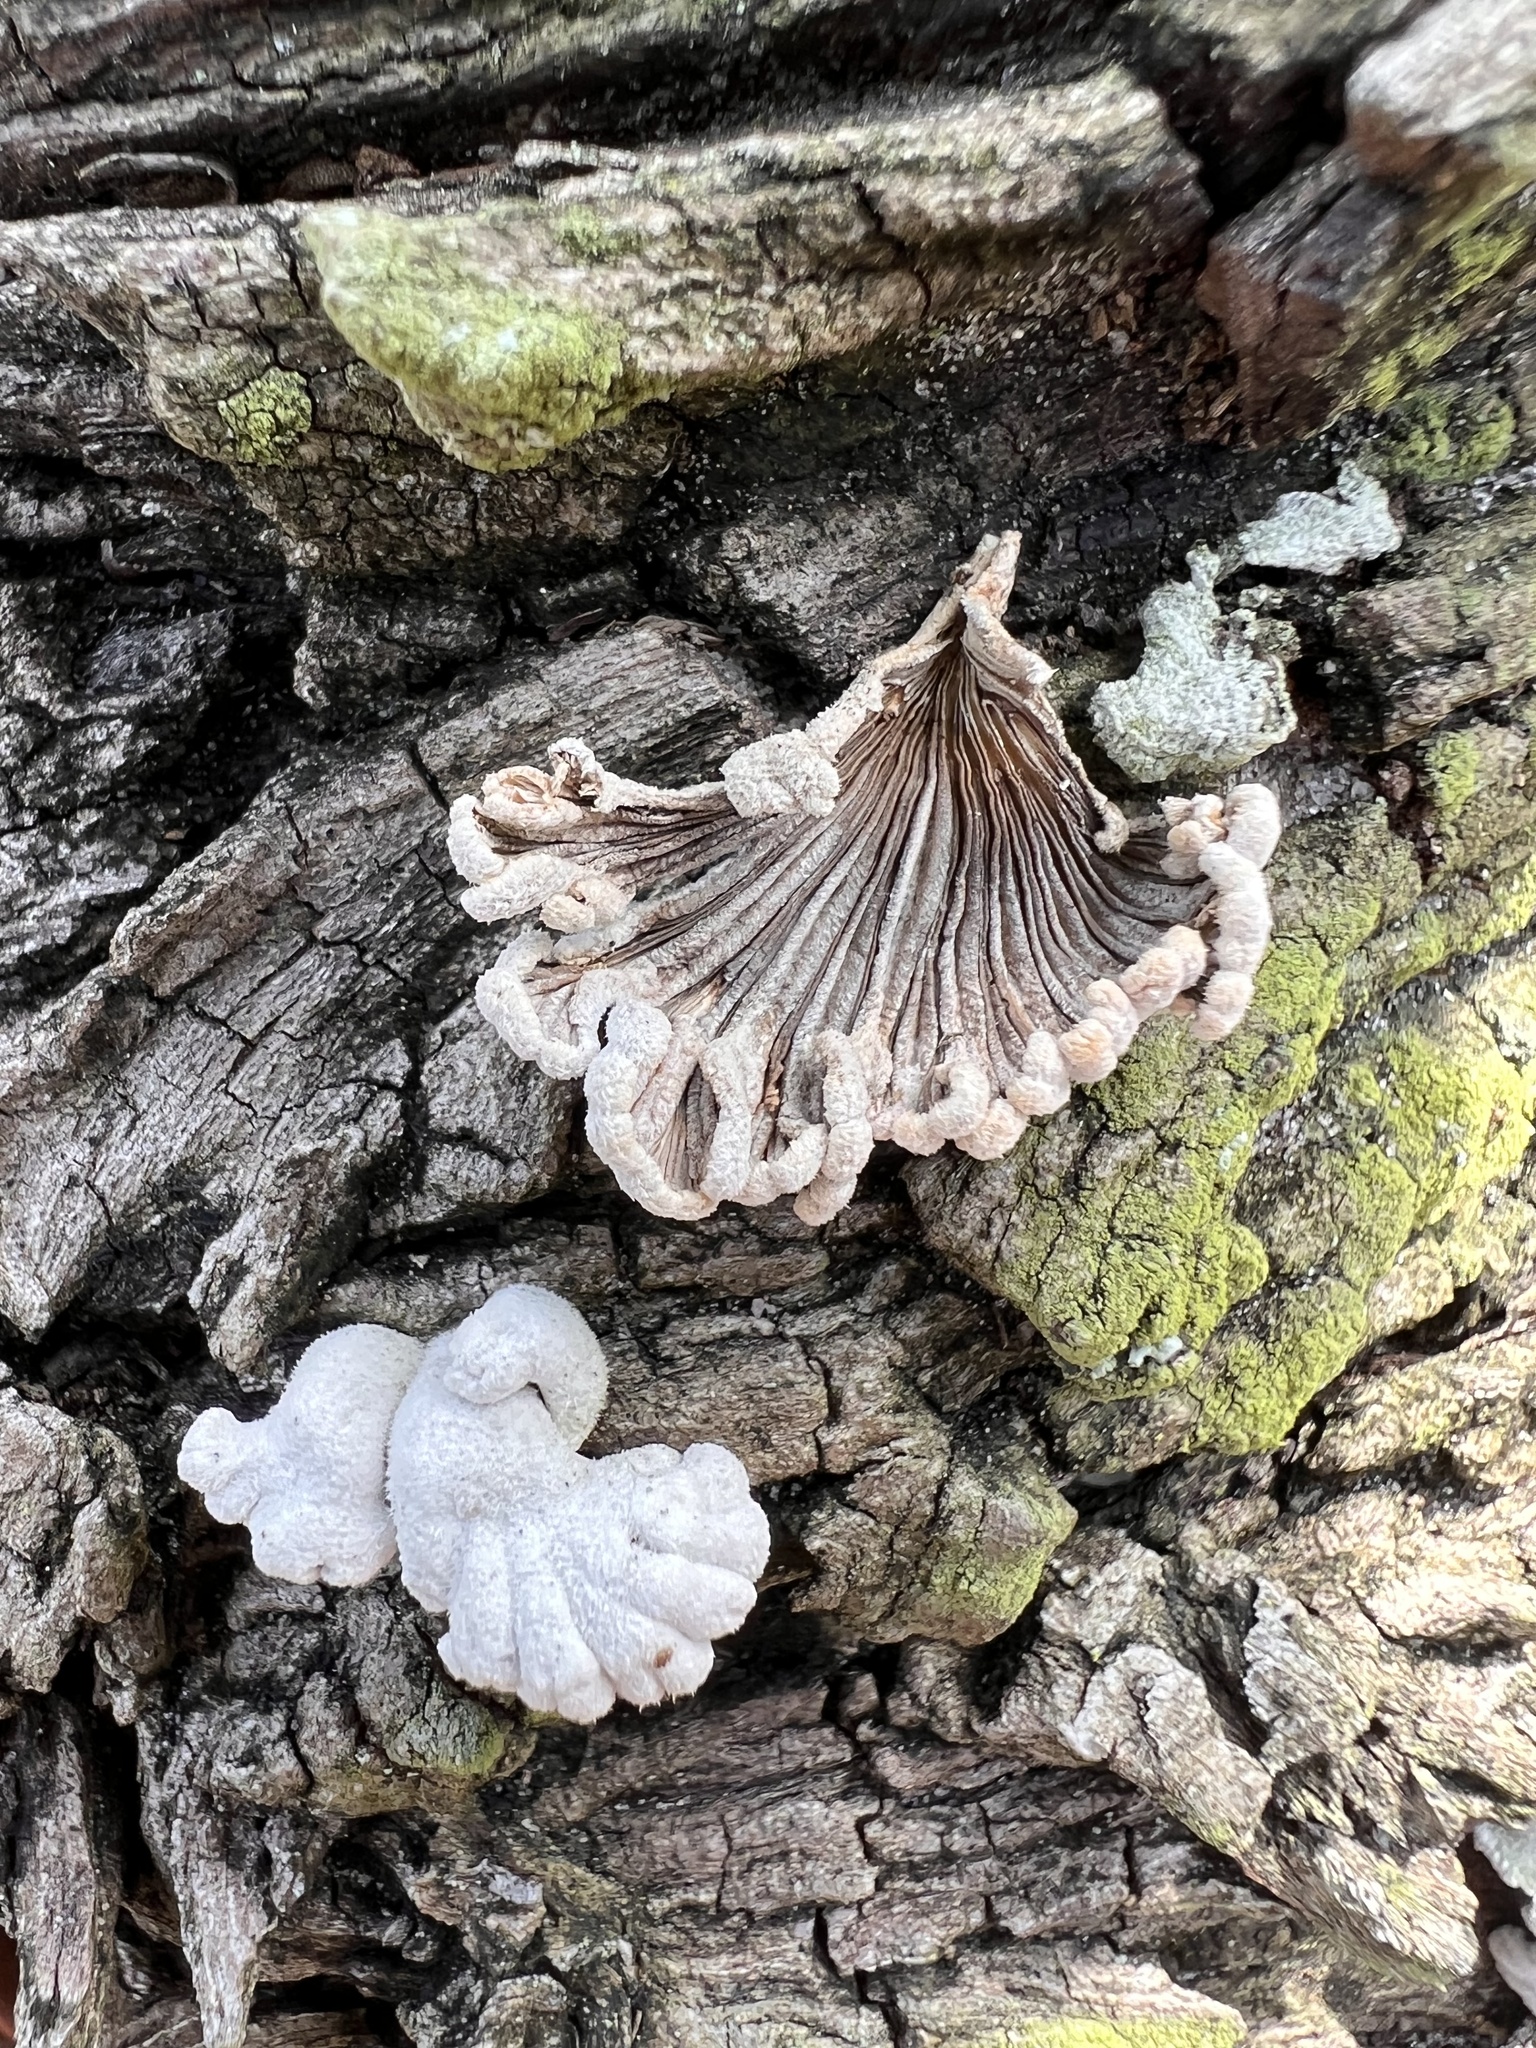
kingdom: Fungi
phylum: Basidiomycota
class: Agaricomycetes
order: Agaricales
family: Schizophyllaceae
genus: Schizophyllum
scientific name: Schizophyllum commune
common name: Common porecrust
